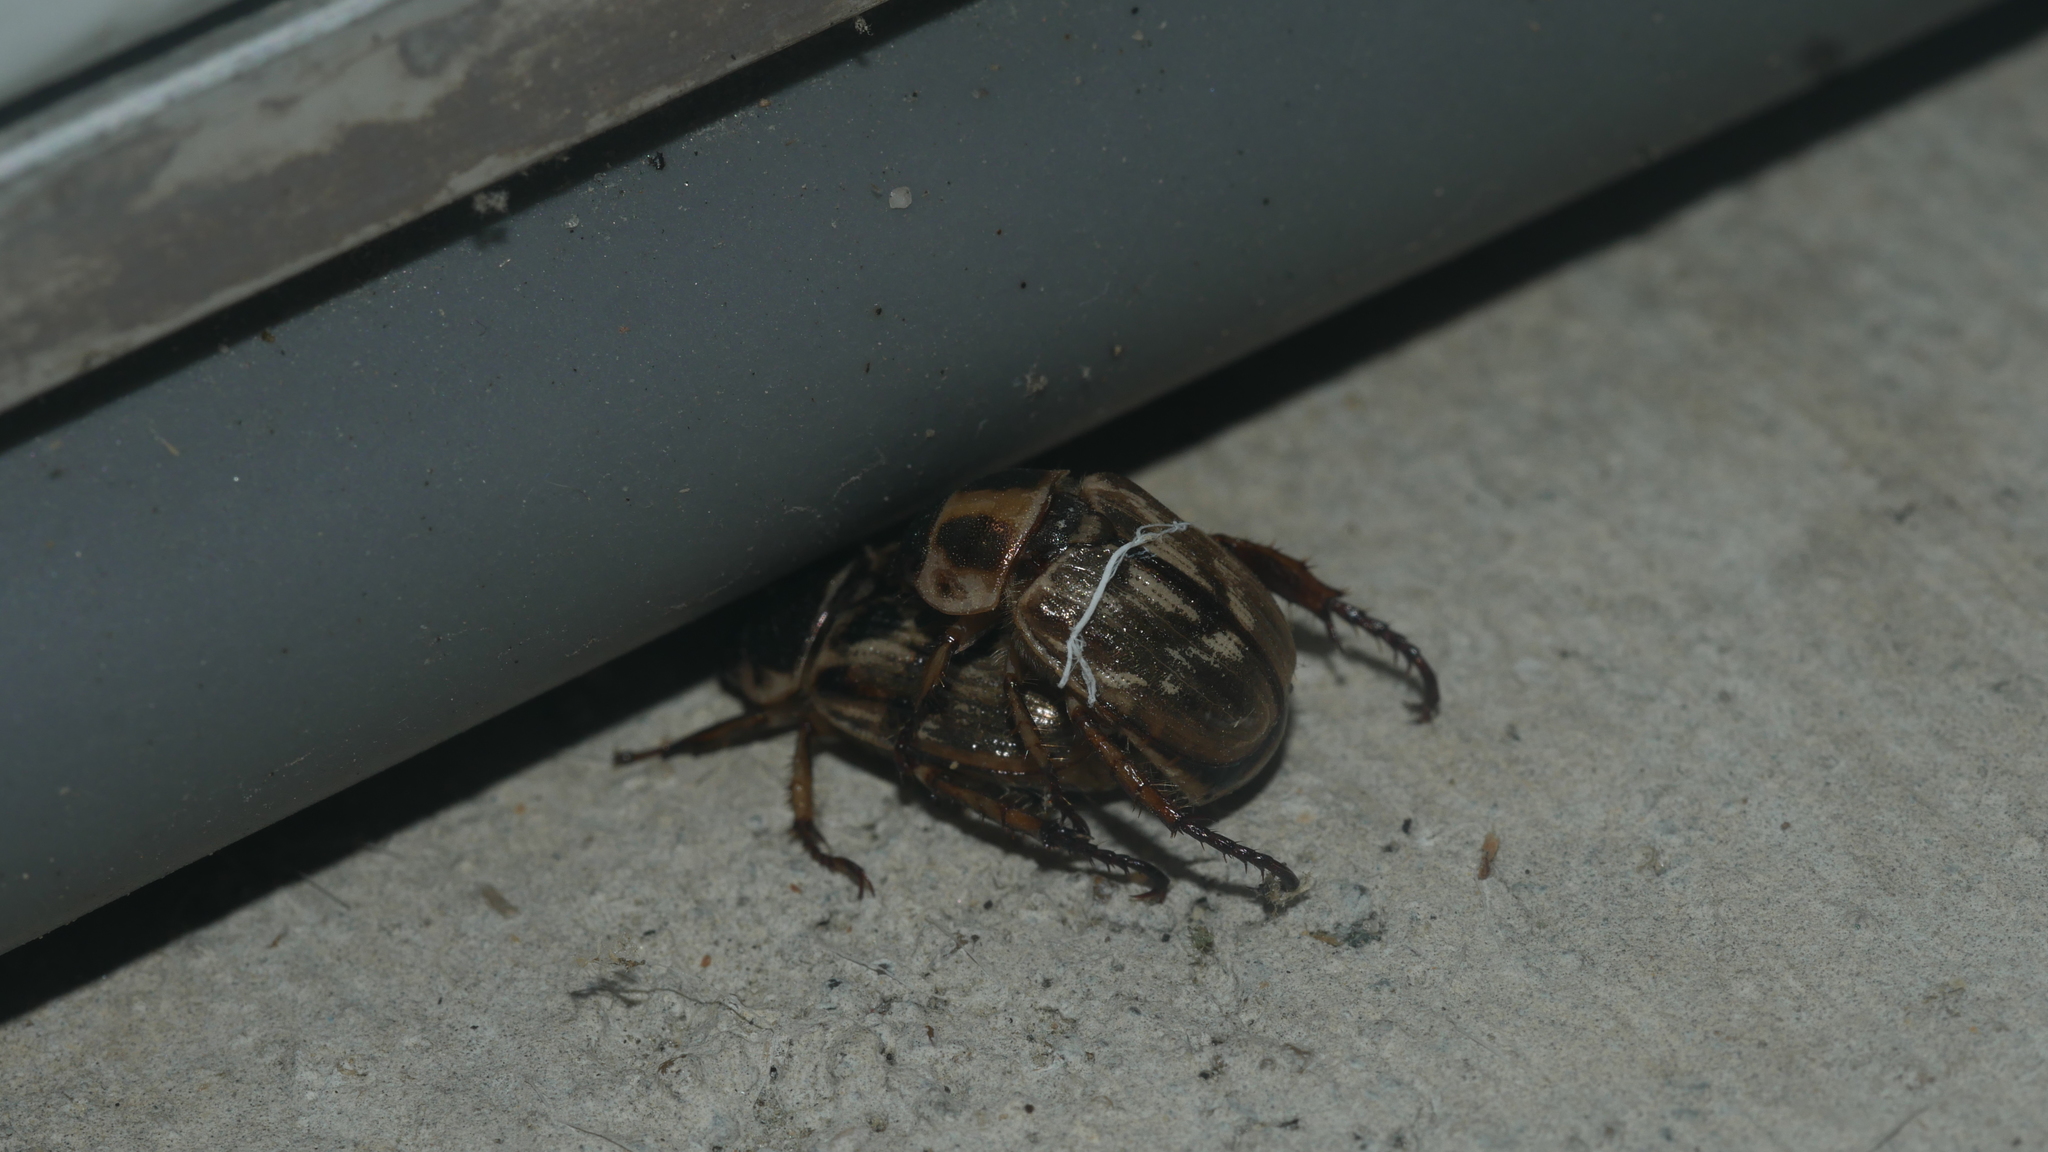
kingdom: Animalia
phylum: Arthropoda
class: Insecta
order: Coleoptera
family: Scarabaeidae
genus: Exomala
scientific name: Exomala orientalis
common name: Oriental beetle
